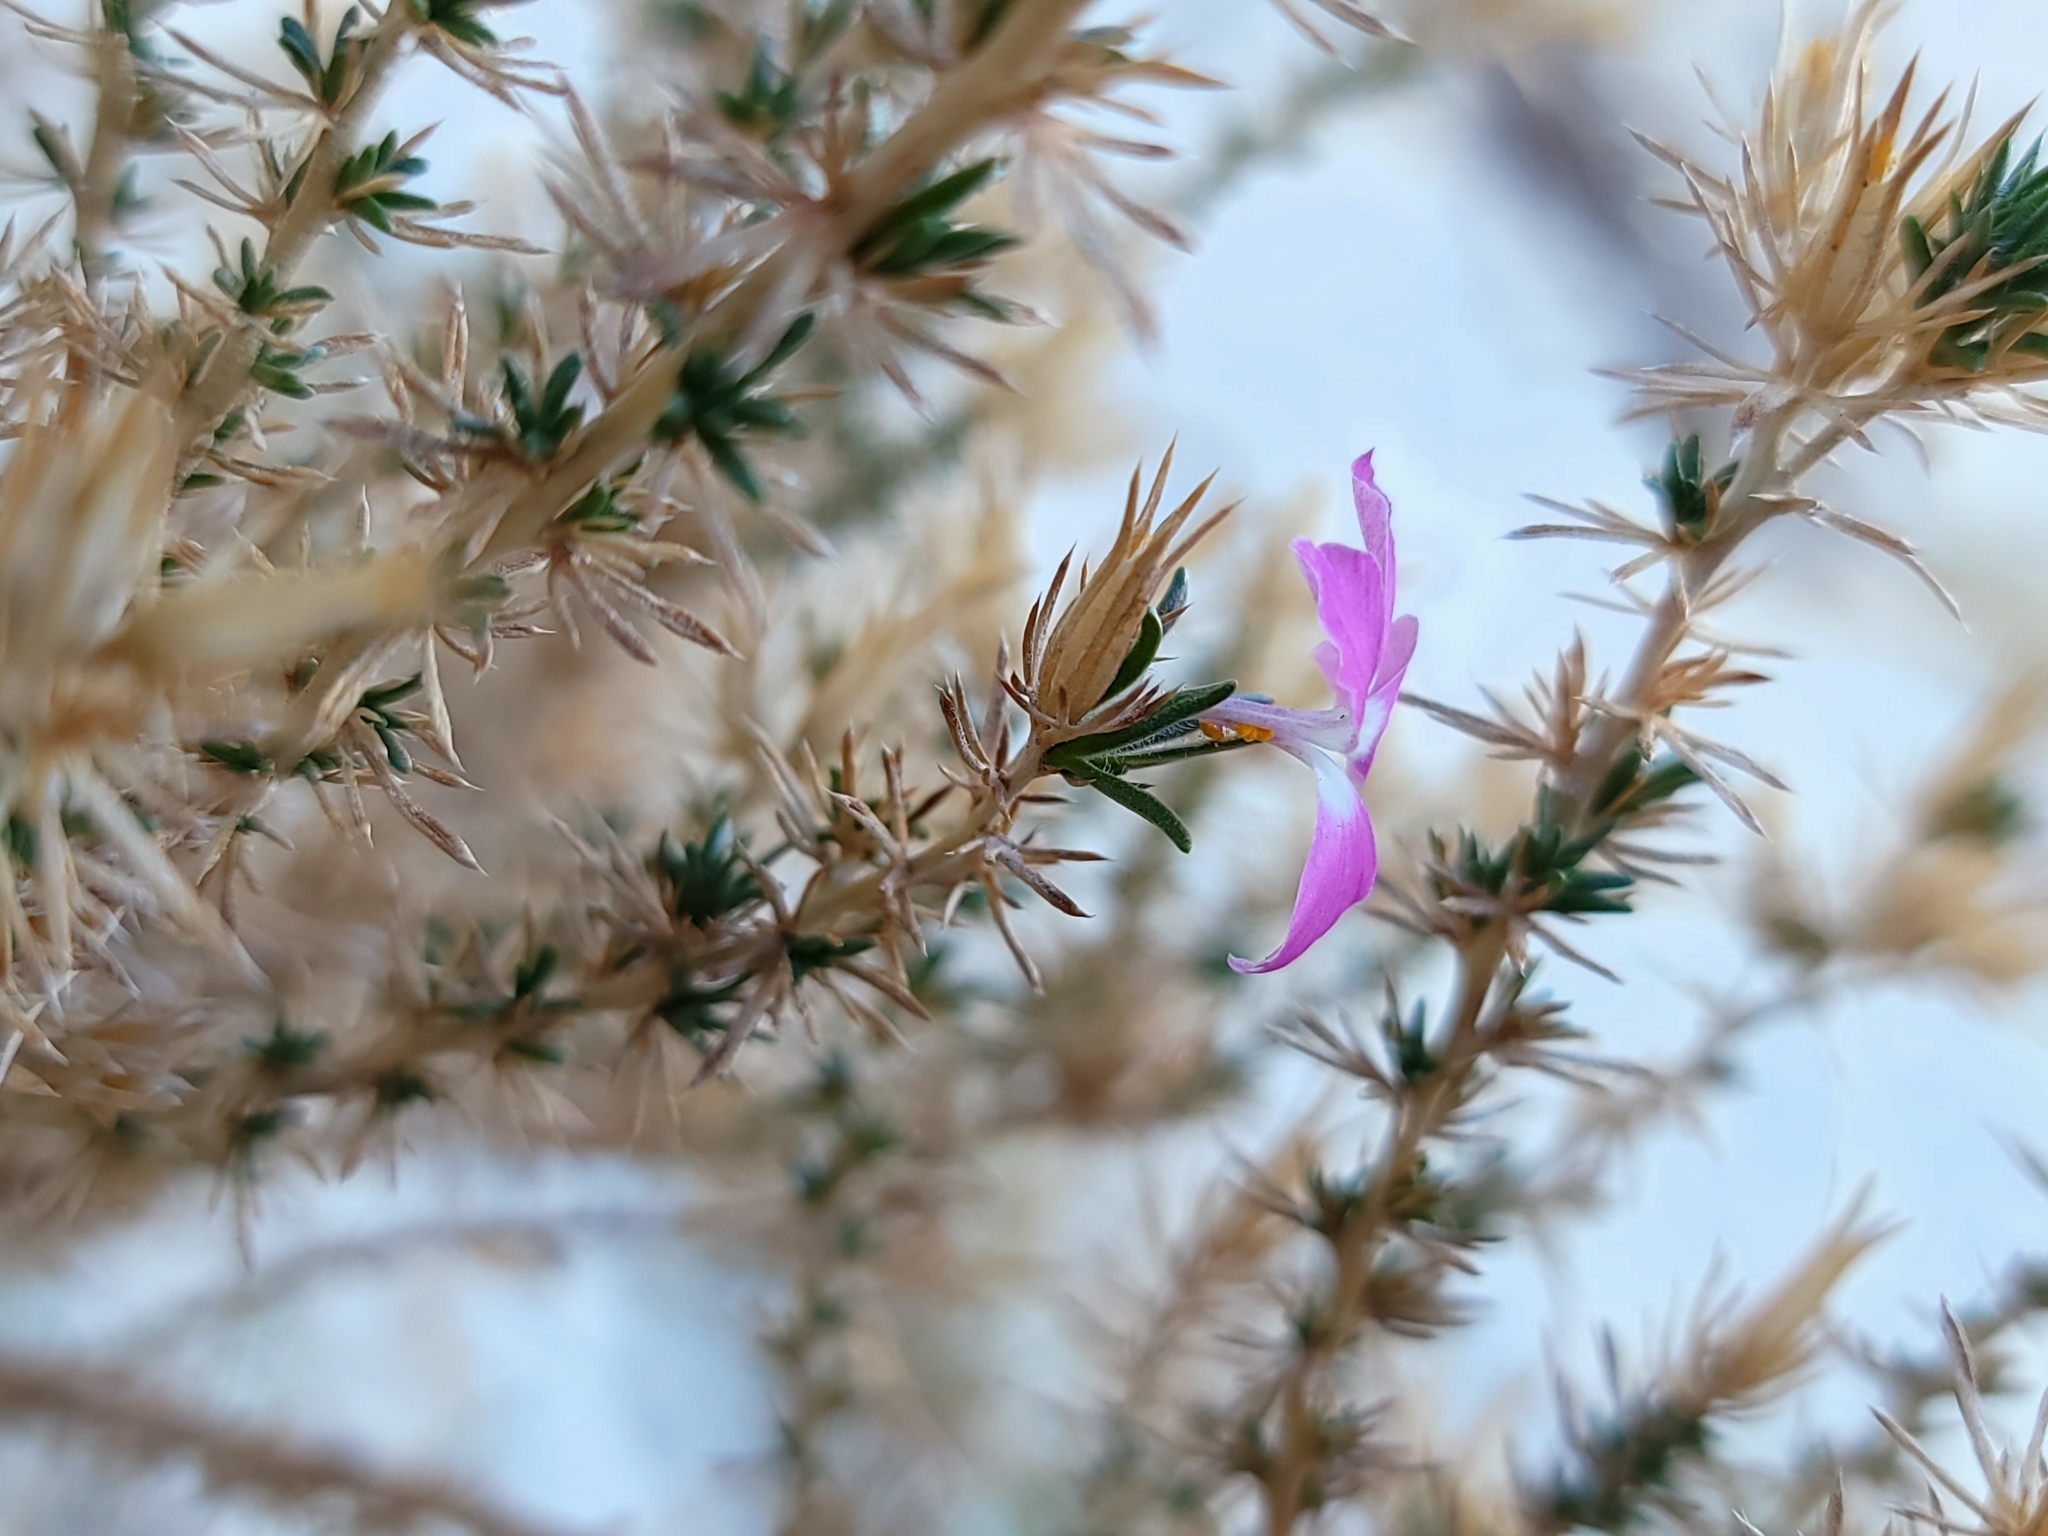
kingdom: Plantae
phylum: Tracheophyta
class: Magnoliopsida
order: Ericales
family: Polemoniaceae
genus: Linanthus
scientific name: Linanthus californicus
